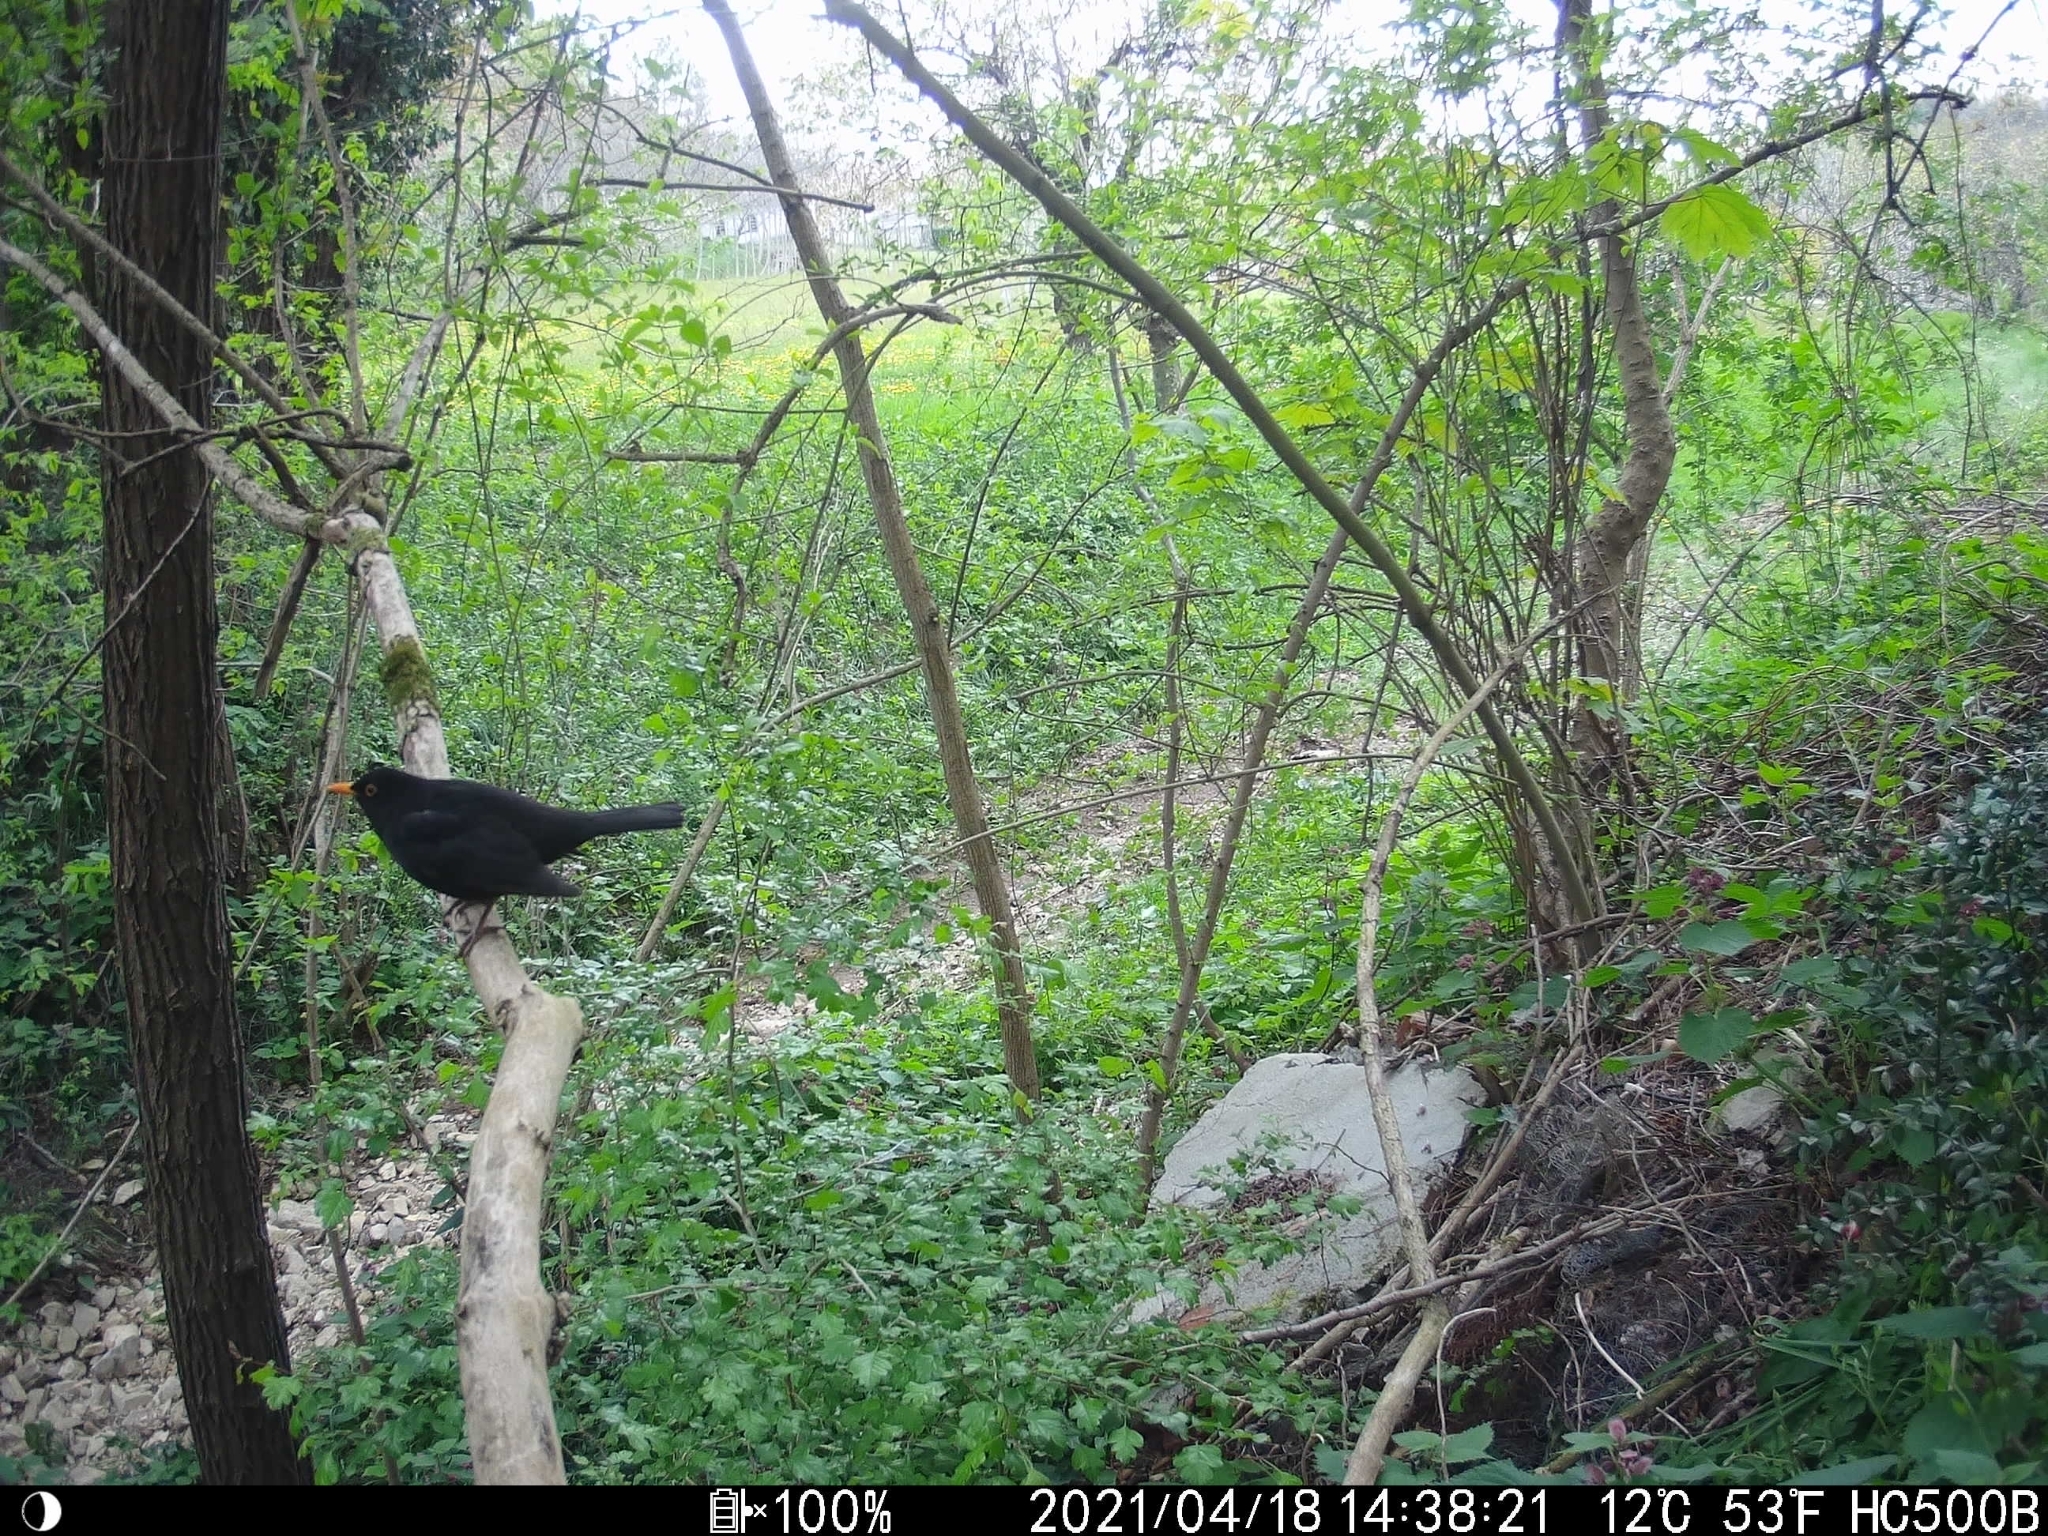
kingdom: Animalia
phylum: Chordata
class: Aves
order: Passeriformes
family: Turdidae
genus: Turdus
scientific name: Turdus merula
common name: Common blackbird
